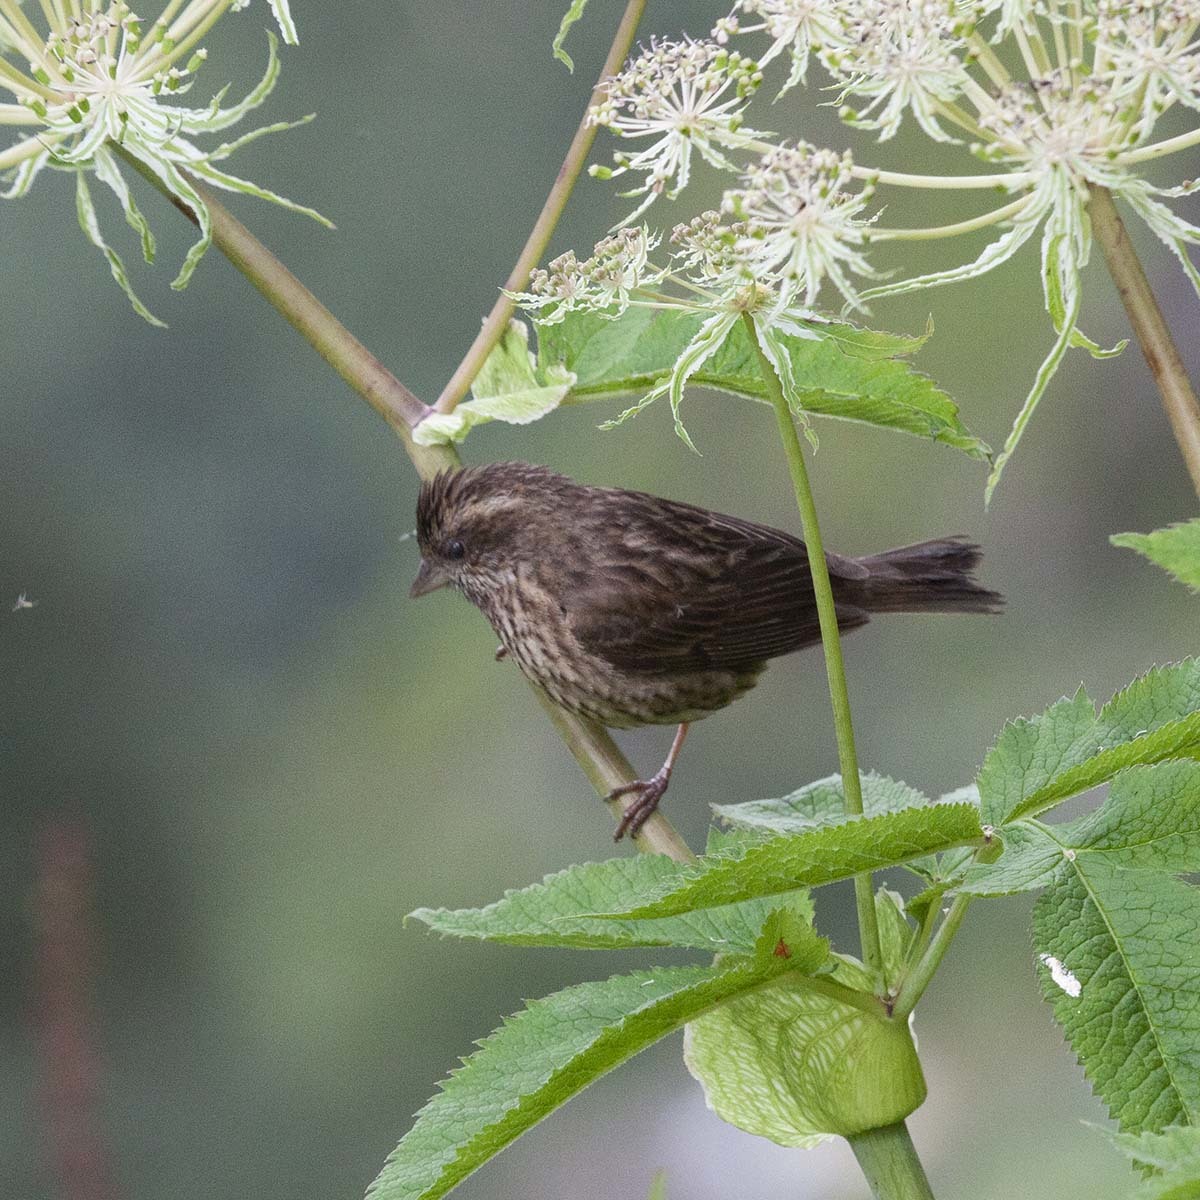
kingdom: Animalia
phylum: Chordata
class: Aves
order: Passeriformes
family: Fringillidae
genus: Carpodacus
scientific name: Carpodacus rodopeplus
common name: Spot-winged rosefinch
